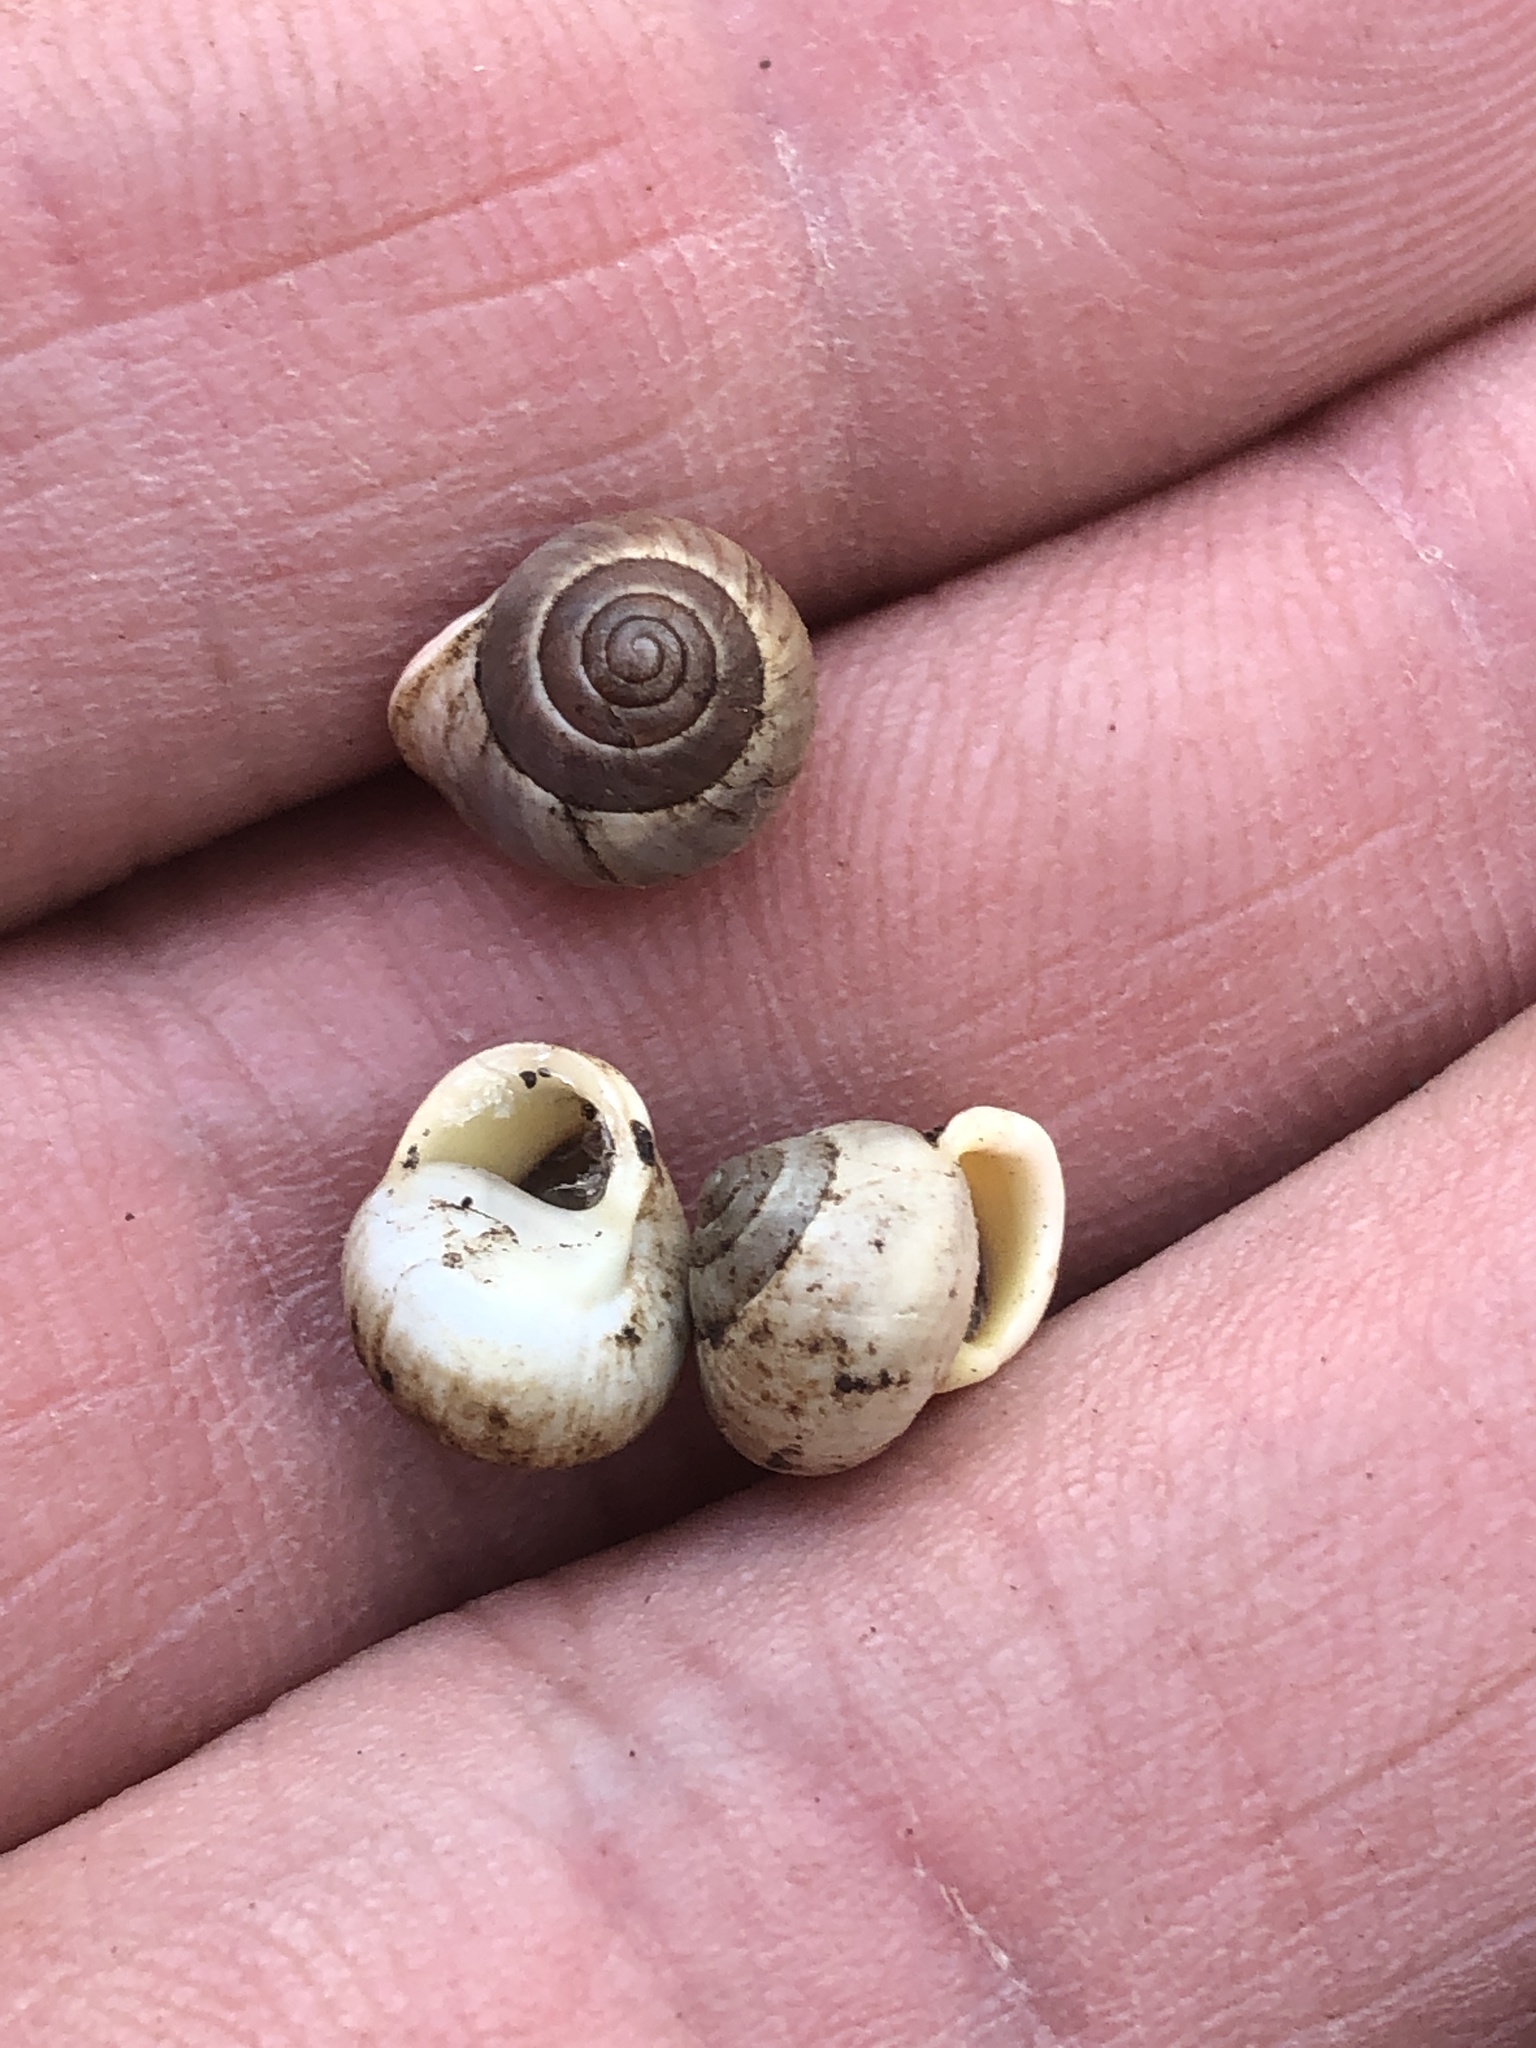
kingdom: Animalia
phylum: Mollusca
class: Gastropoda
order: Cycloneritida
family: Helicinidae
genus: Helicina
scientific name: Helicina orbiculata
